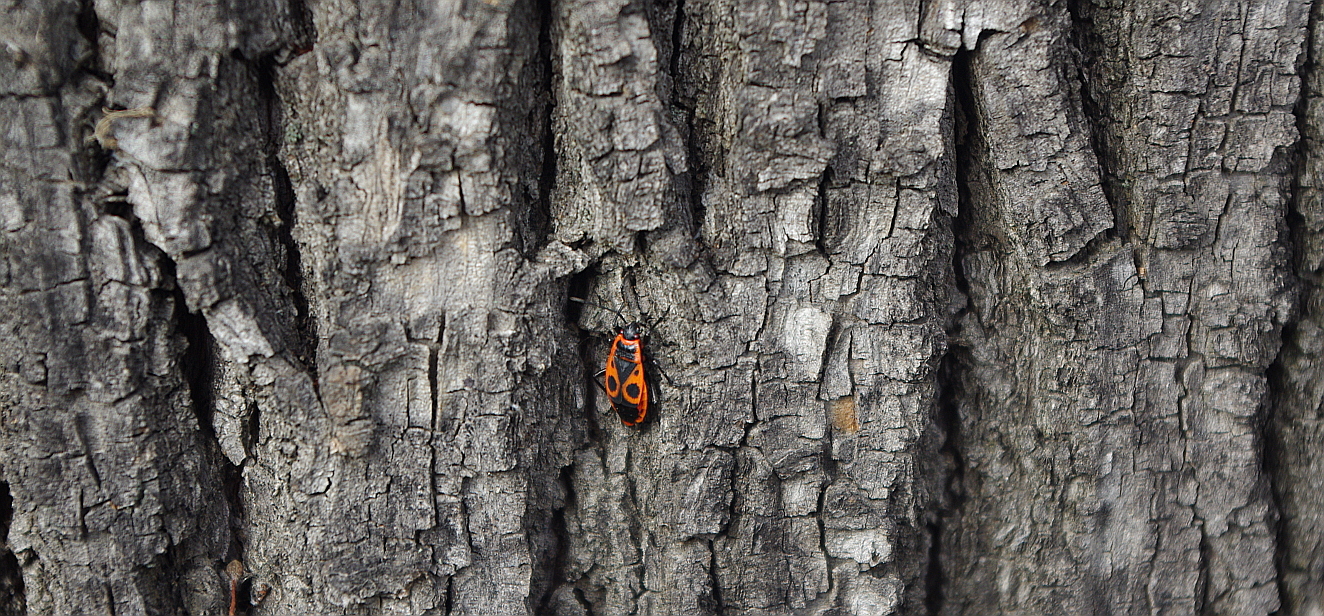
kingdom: Animalia
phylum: Arthropoda
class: Insecta
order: Hemiptera
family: Pyrrhocoridae
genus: Pyrrhocoris
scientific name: Pyrrhocoris apterus
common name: Firebug
